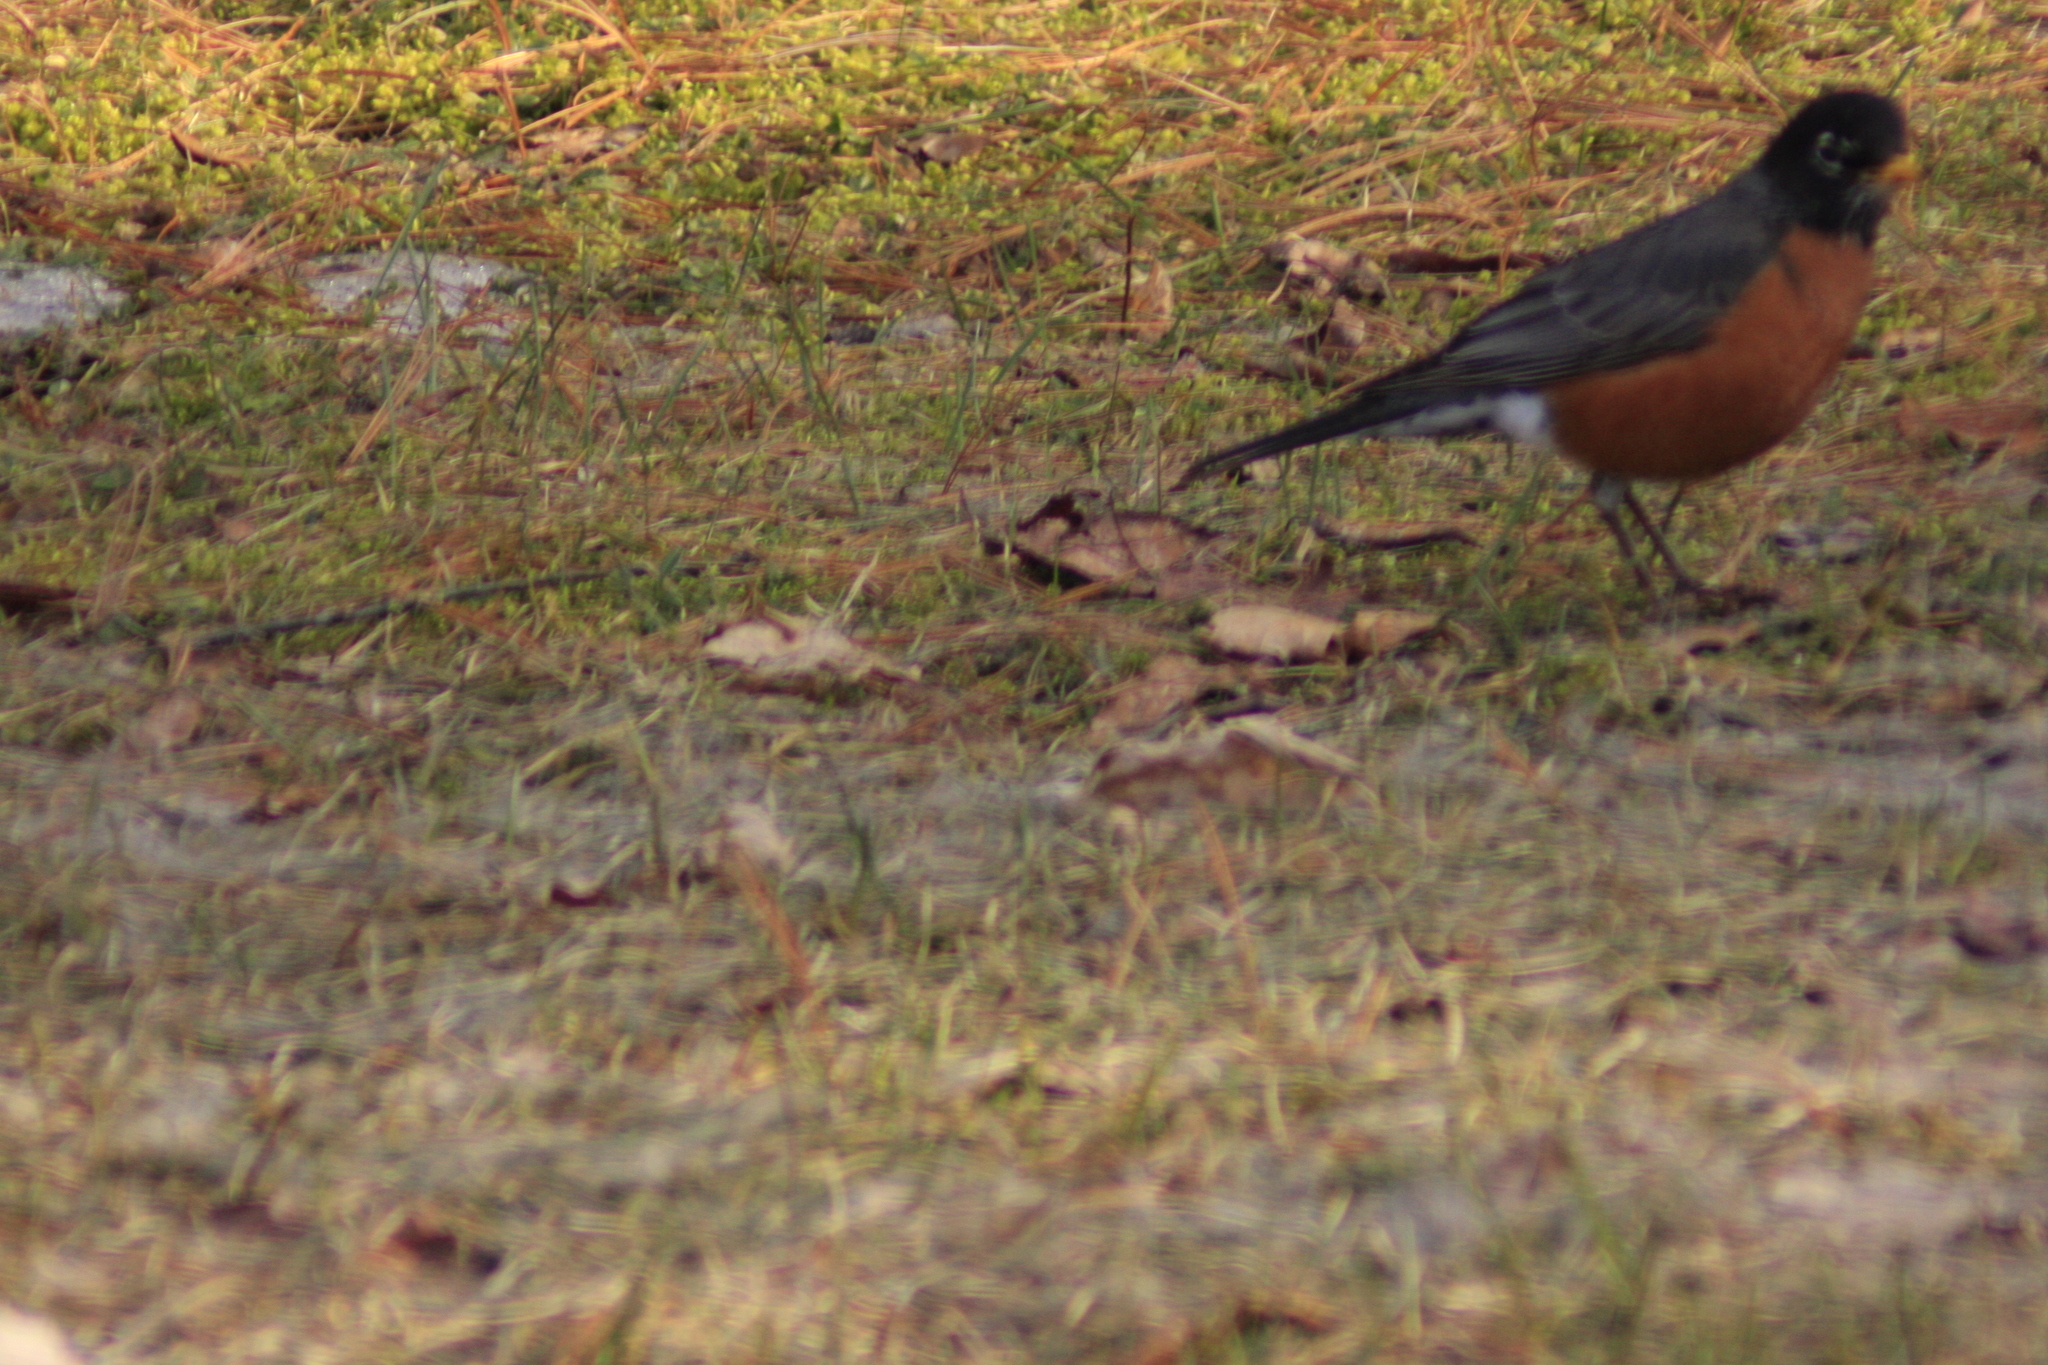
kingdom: Animalia
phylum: Chordata
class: Aves
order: Passeriformes
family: Turdidae
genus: Turdus
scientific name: Turdus migratorius
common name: American robin
